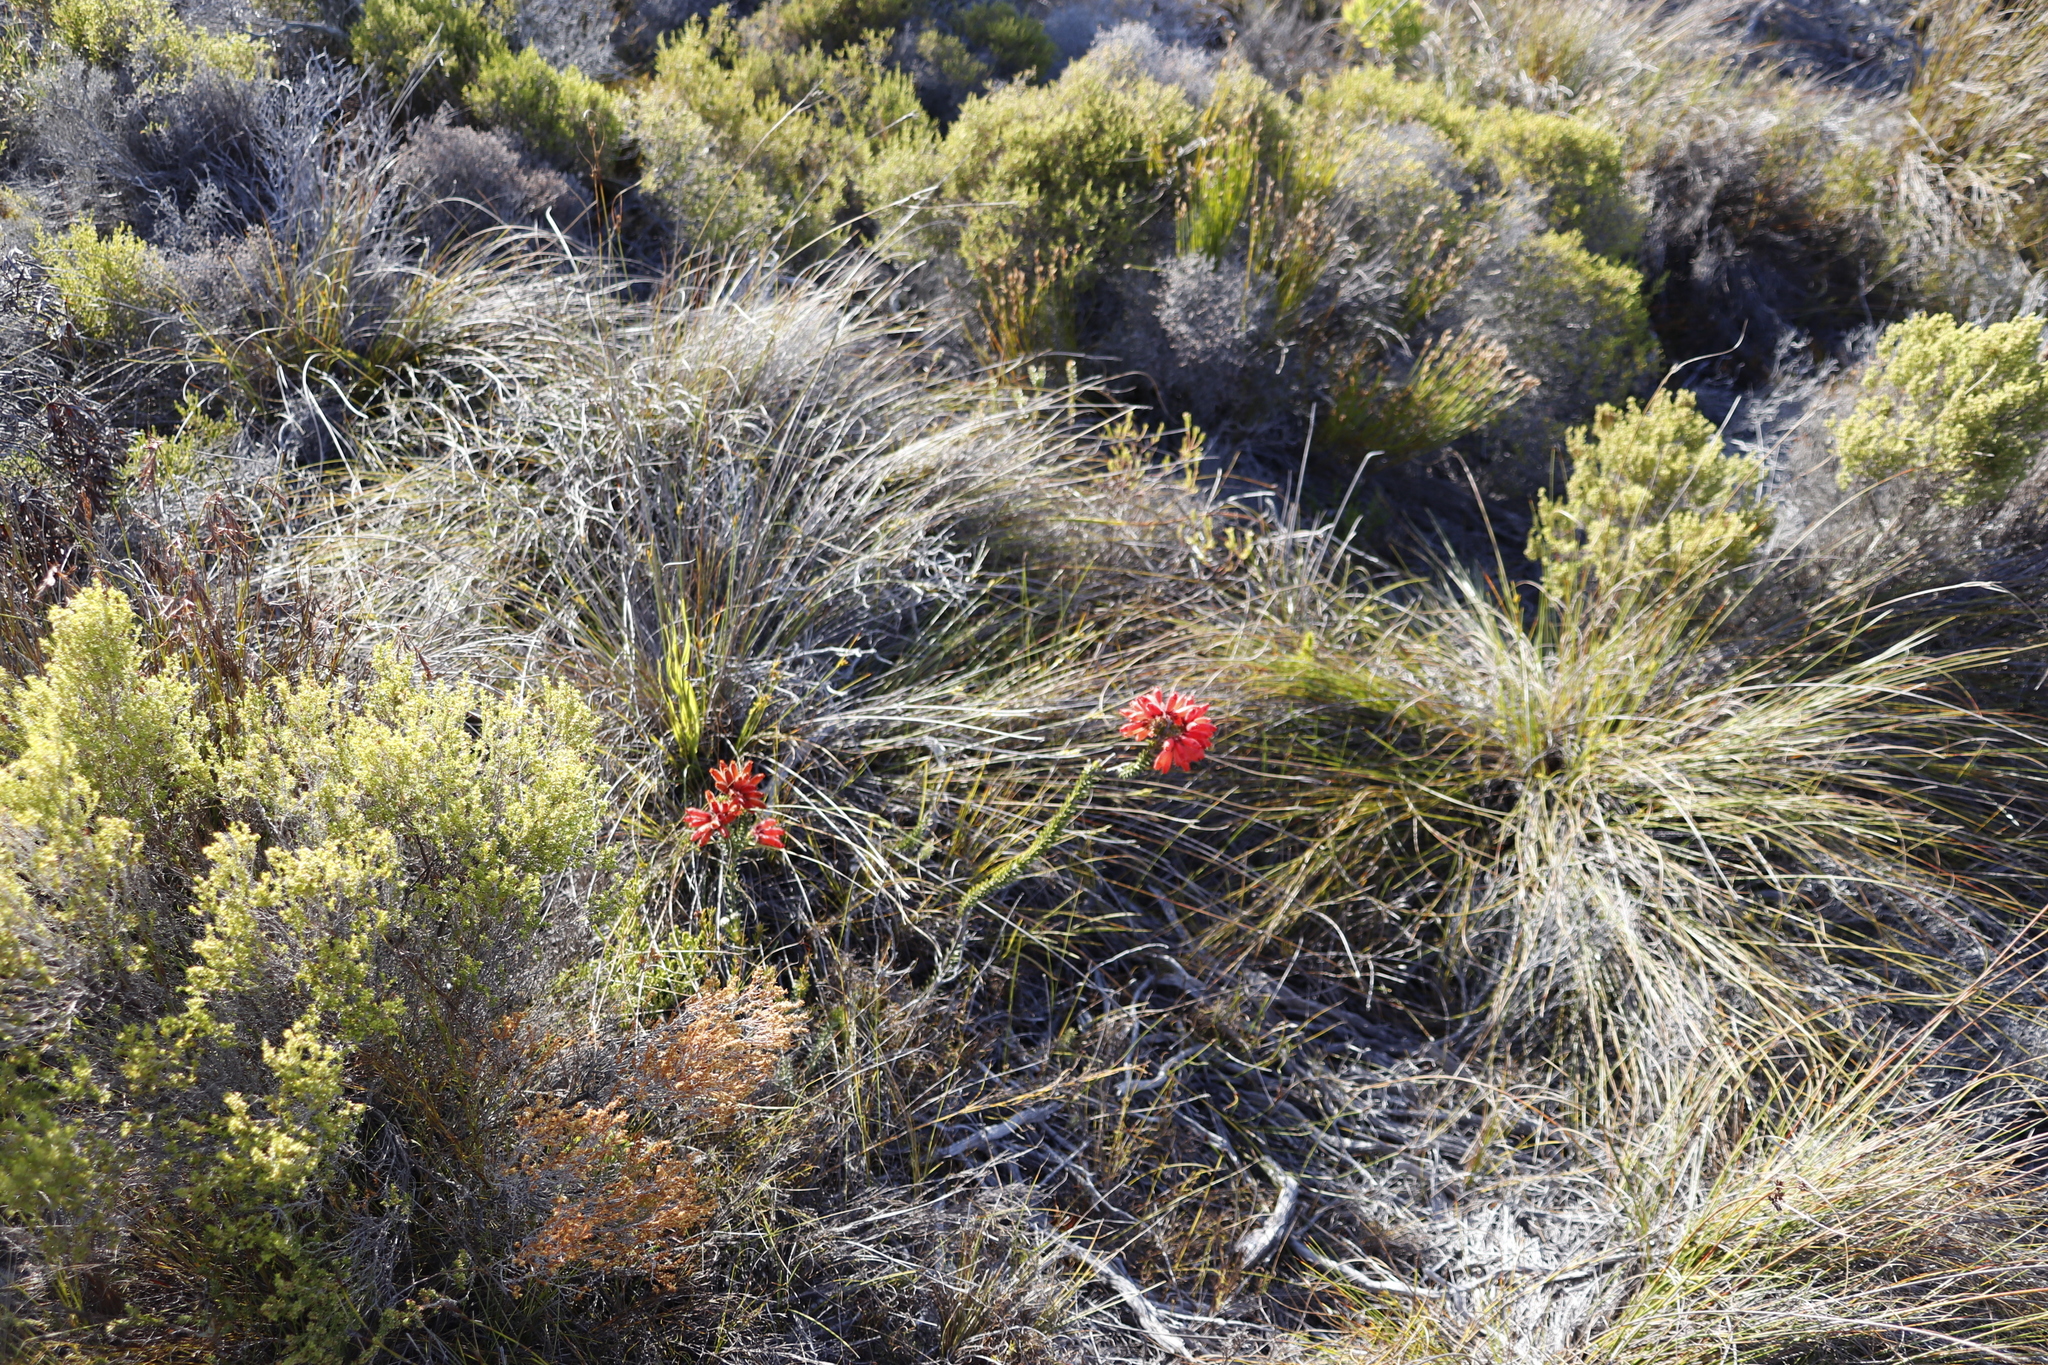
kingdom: Plantae
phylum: Tracheophyta
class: Magnoliopsida
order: Ericales
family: Ericaceae
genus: Erica
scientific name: Erica cerinthoides
